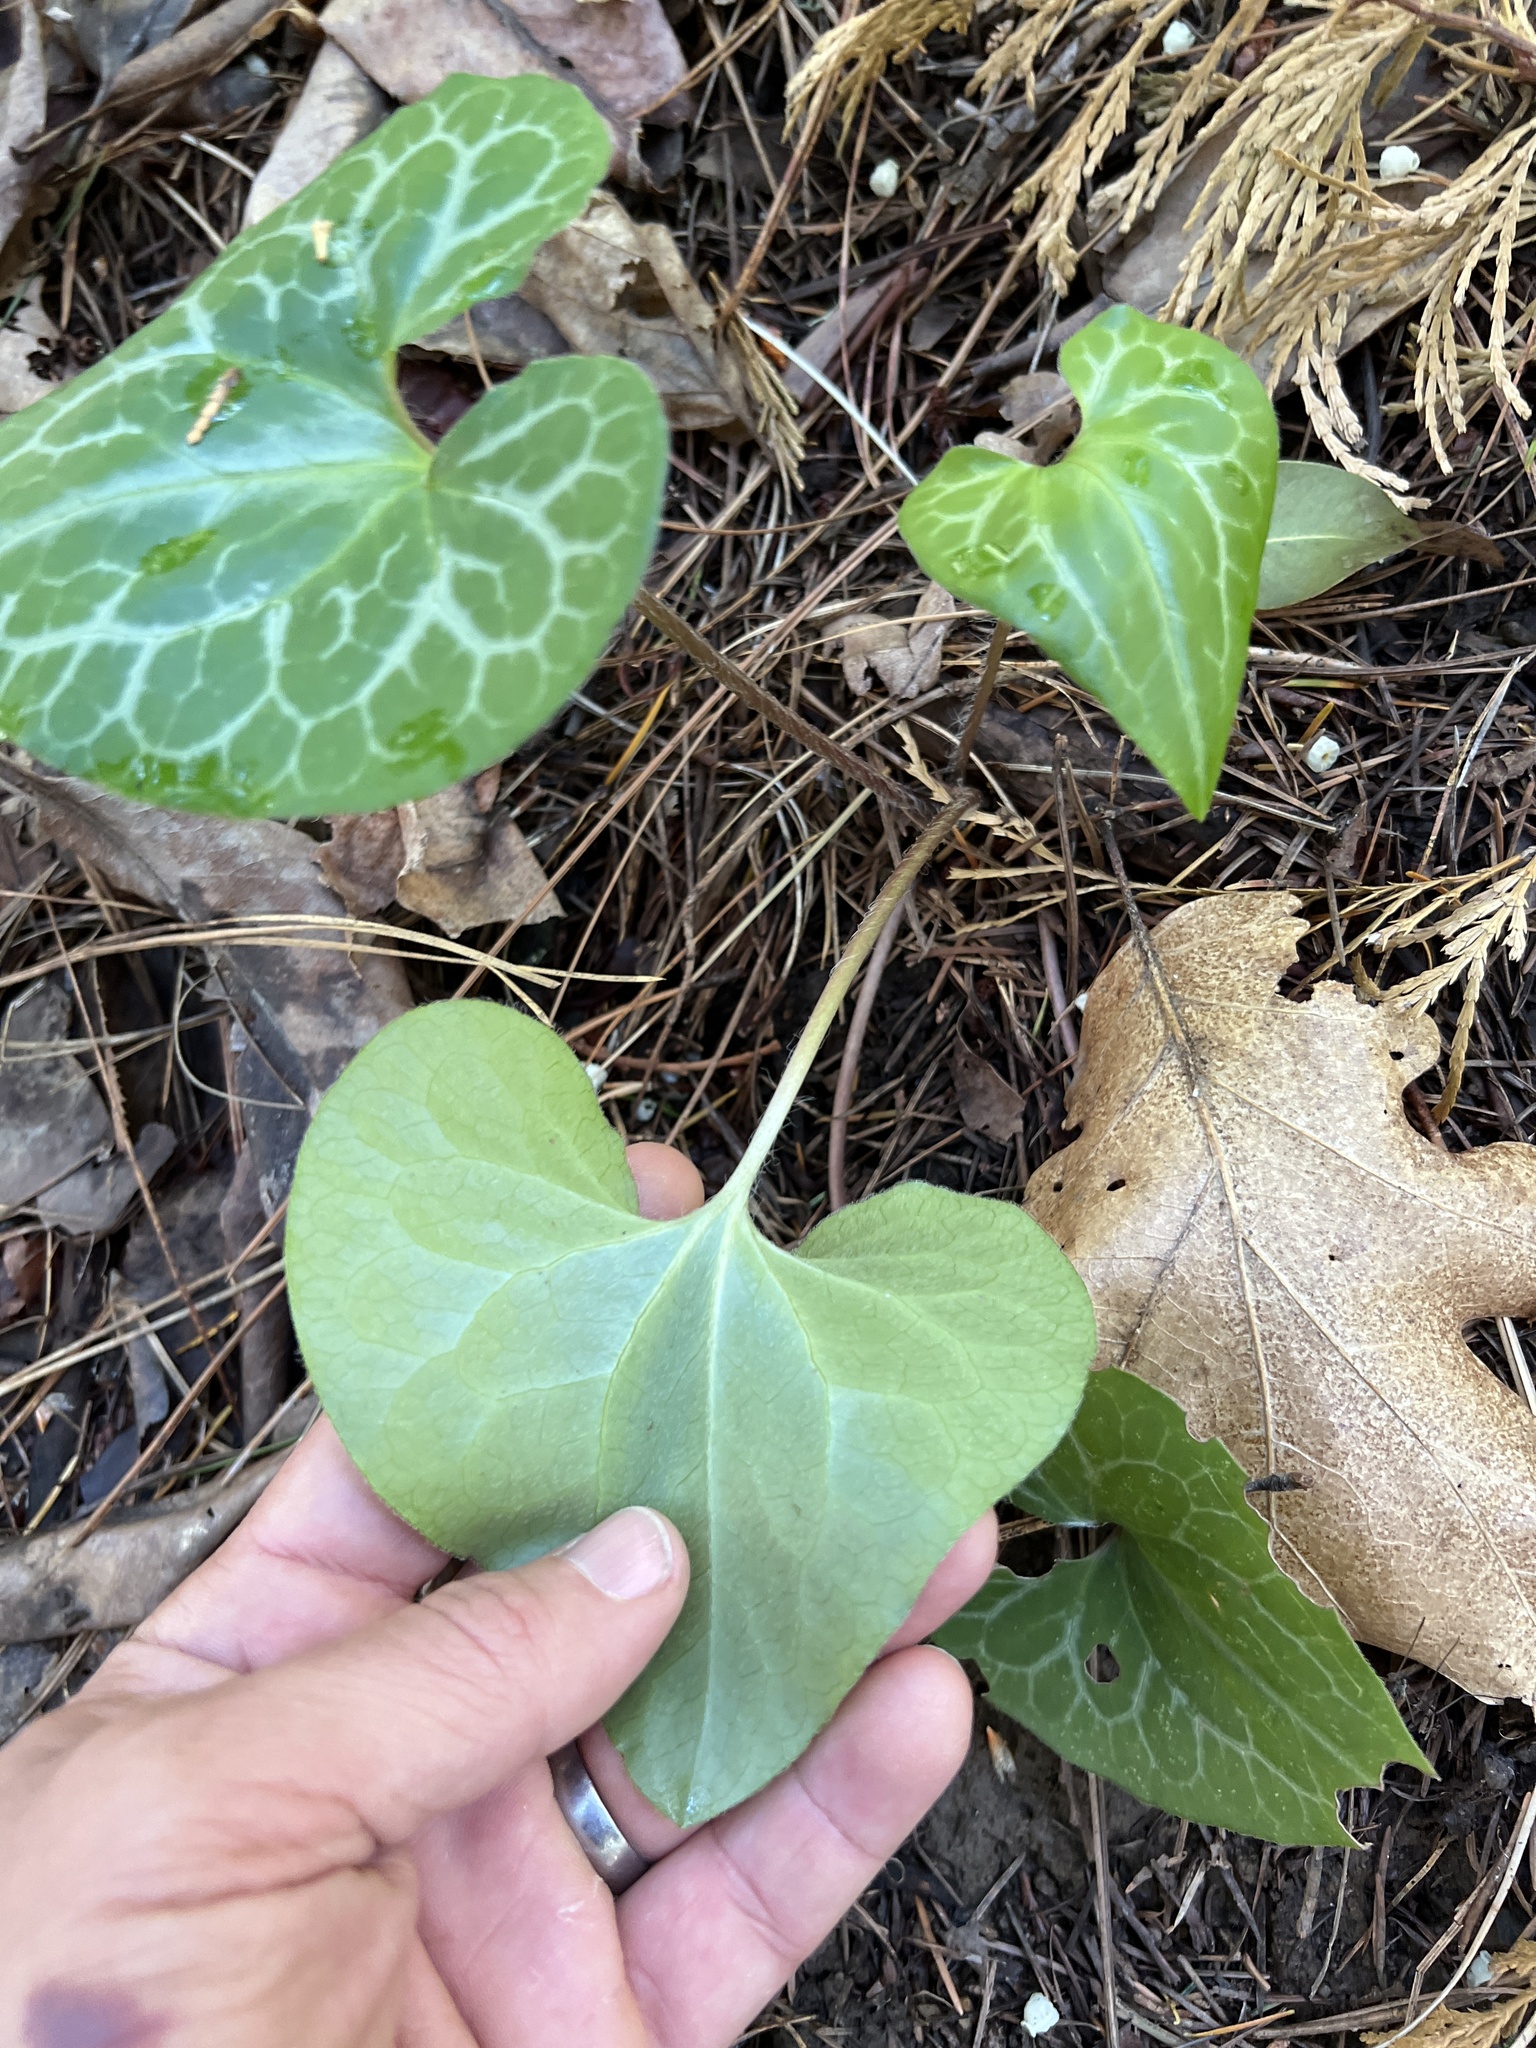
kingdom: Plantae
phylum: Tracheophyta
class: Magnoliopsida
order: Piperales
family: Aristolochiaceae
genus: Asarum
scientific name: Asarum hartwegii
